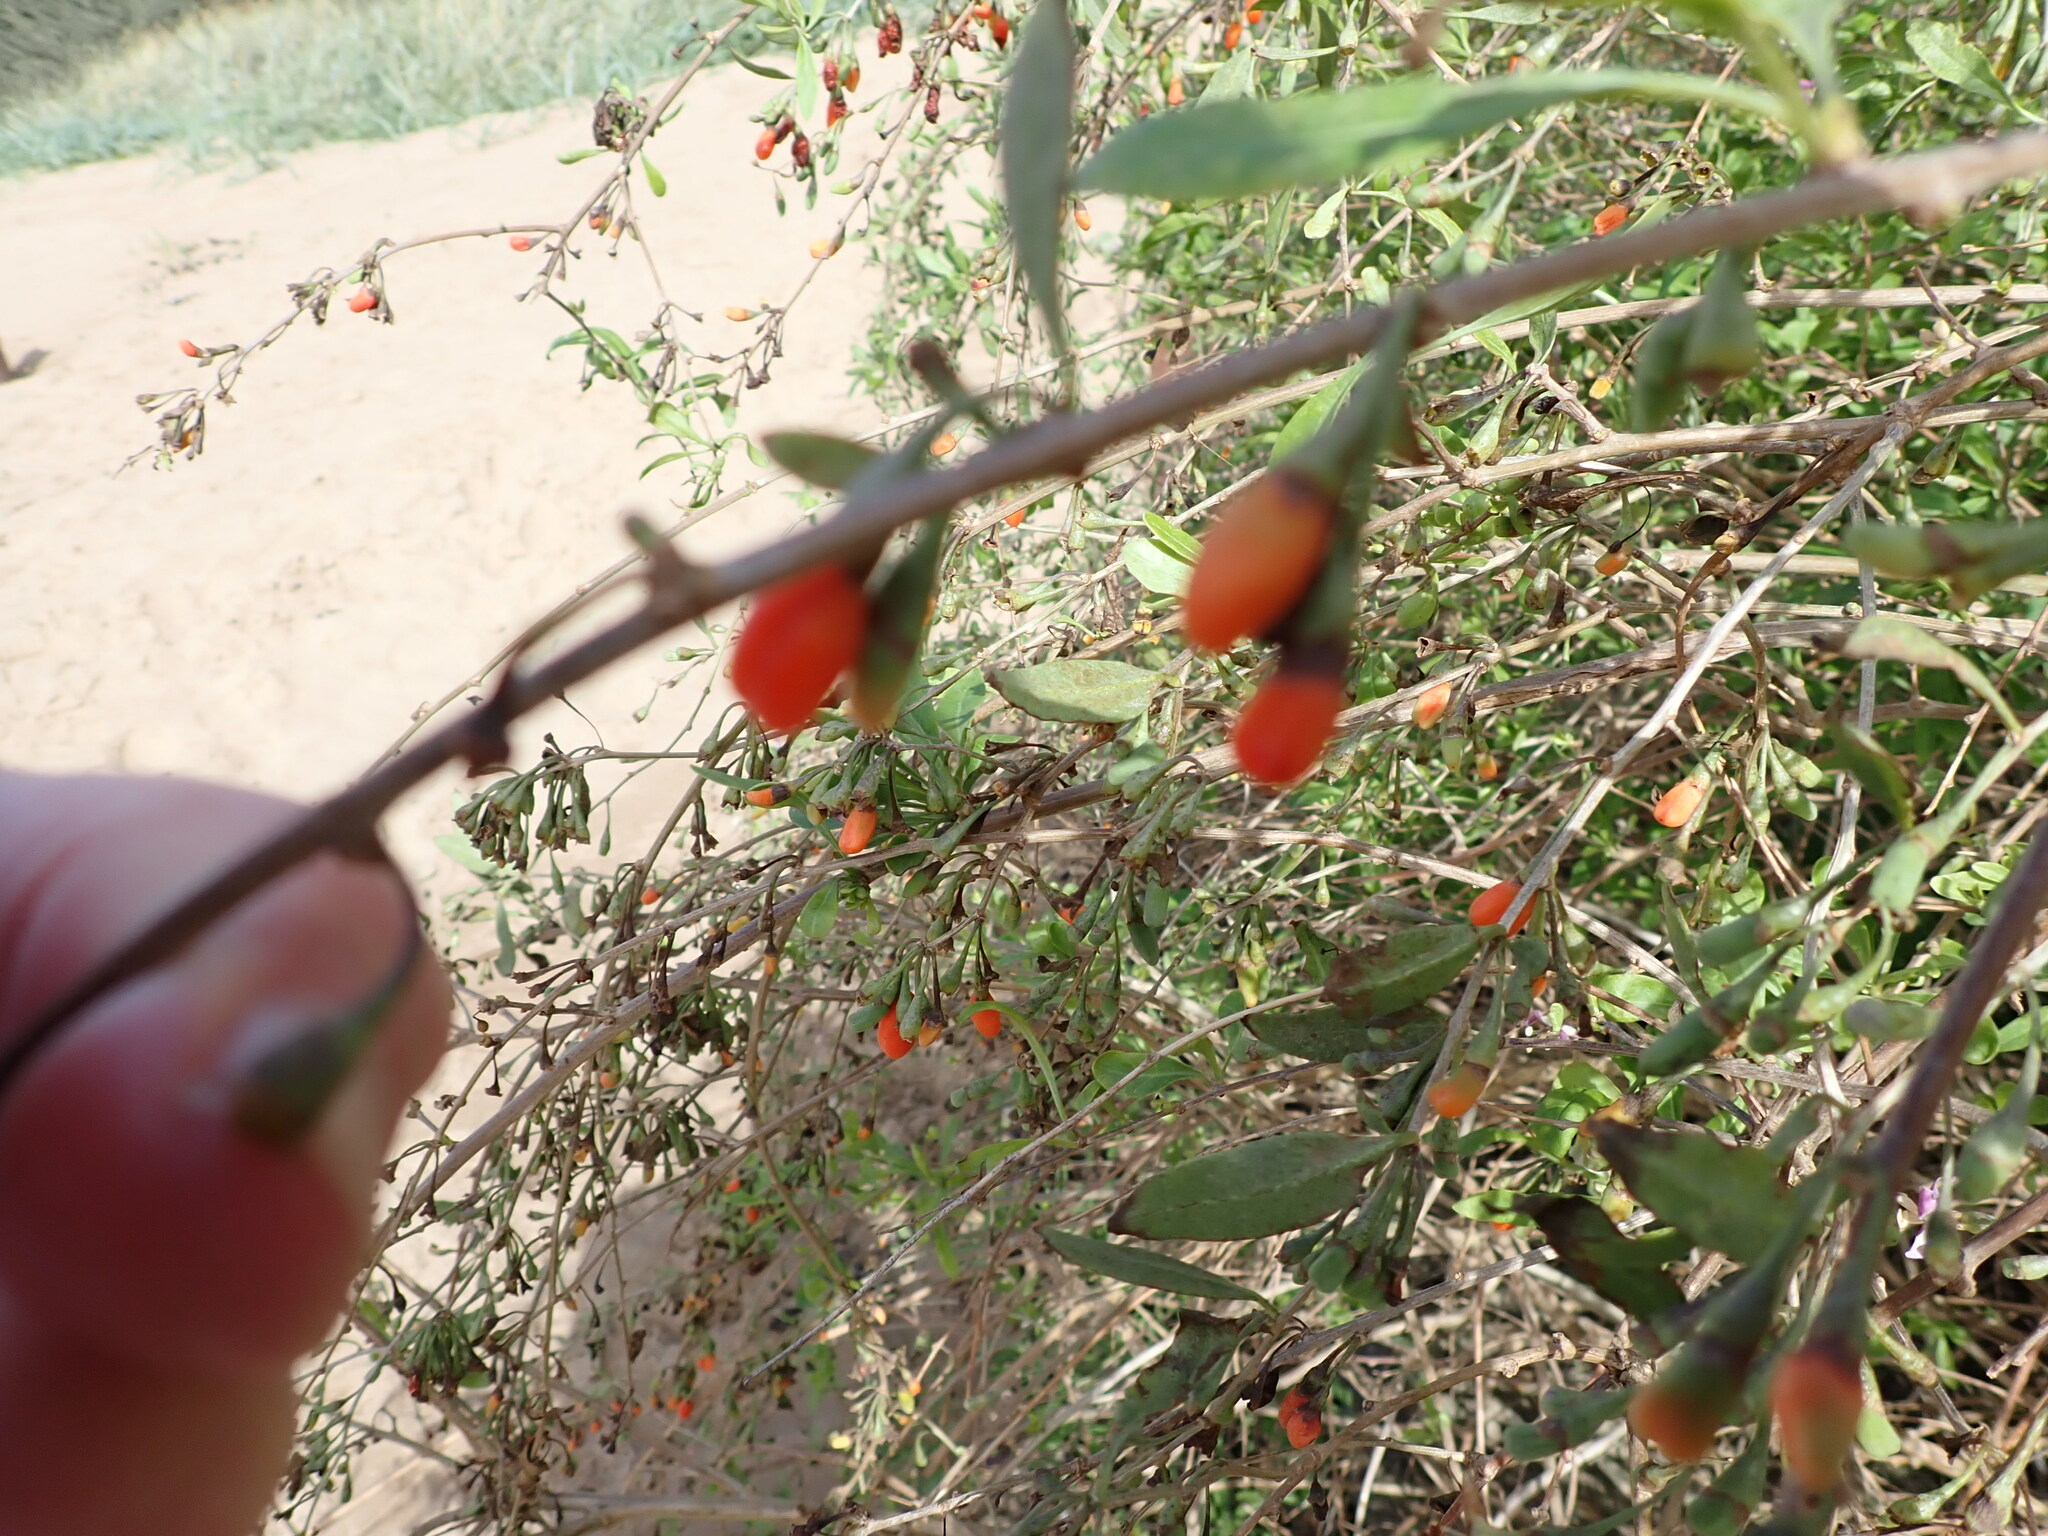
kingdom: Plantae
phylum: Tracheophyta
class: Magnoliopsida
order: Solanales
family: Solanaceae
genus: Lycium
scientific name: Lycium barbarum
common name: Duke of argyll's teaplant
